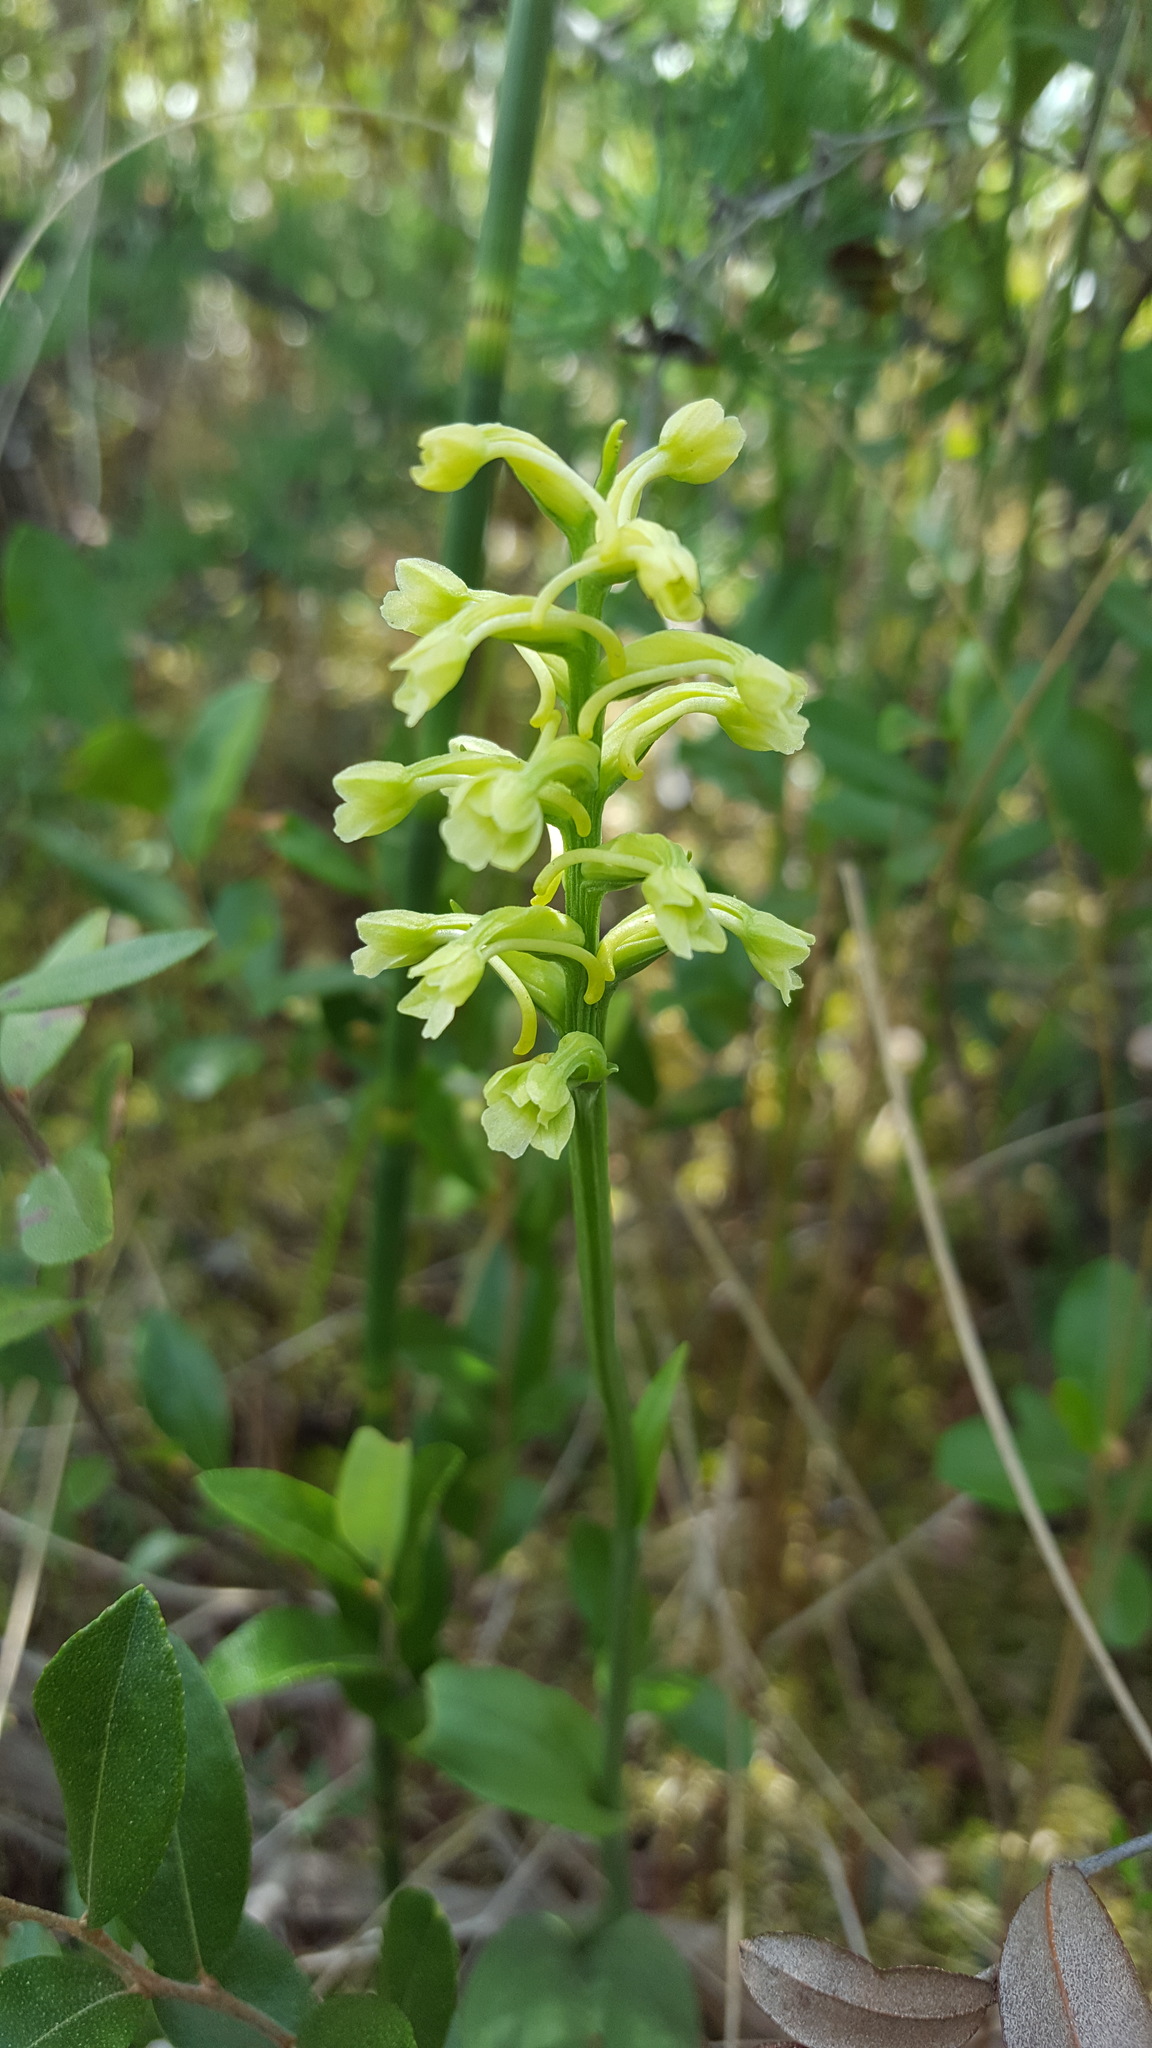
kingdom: Plantae
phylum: Tracheophyta
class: Liliopsida
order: Asparagales
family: Orchidaceae
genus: Platanthera
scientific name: Platanthera clavellata
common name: Club-spur orchid
